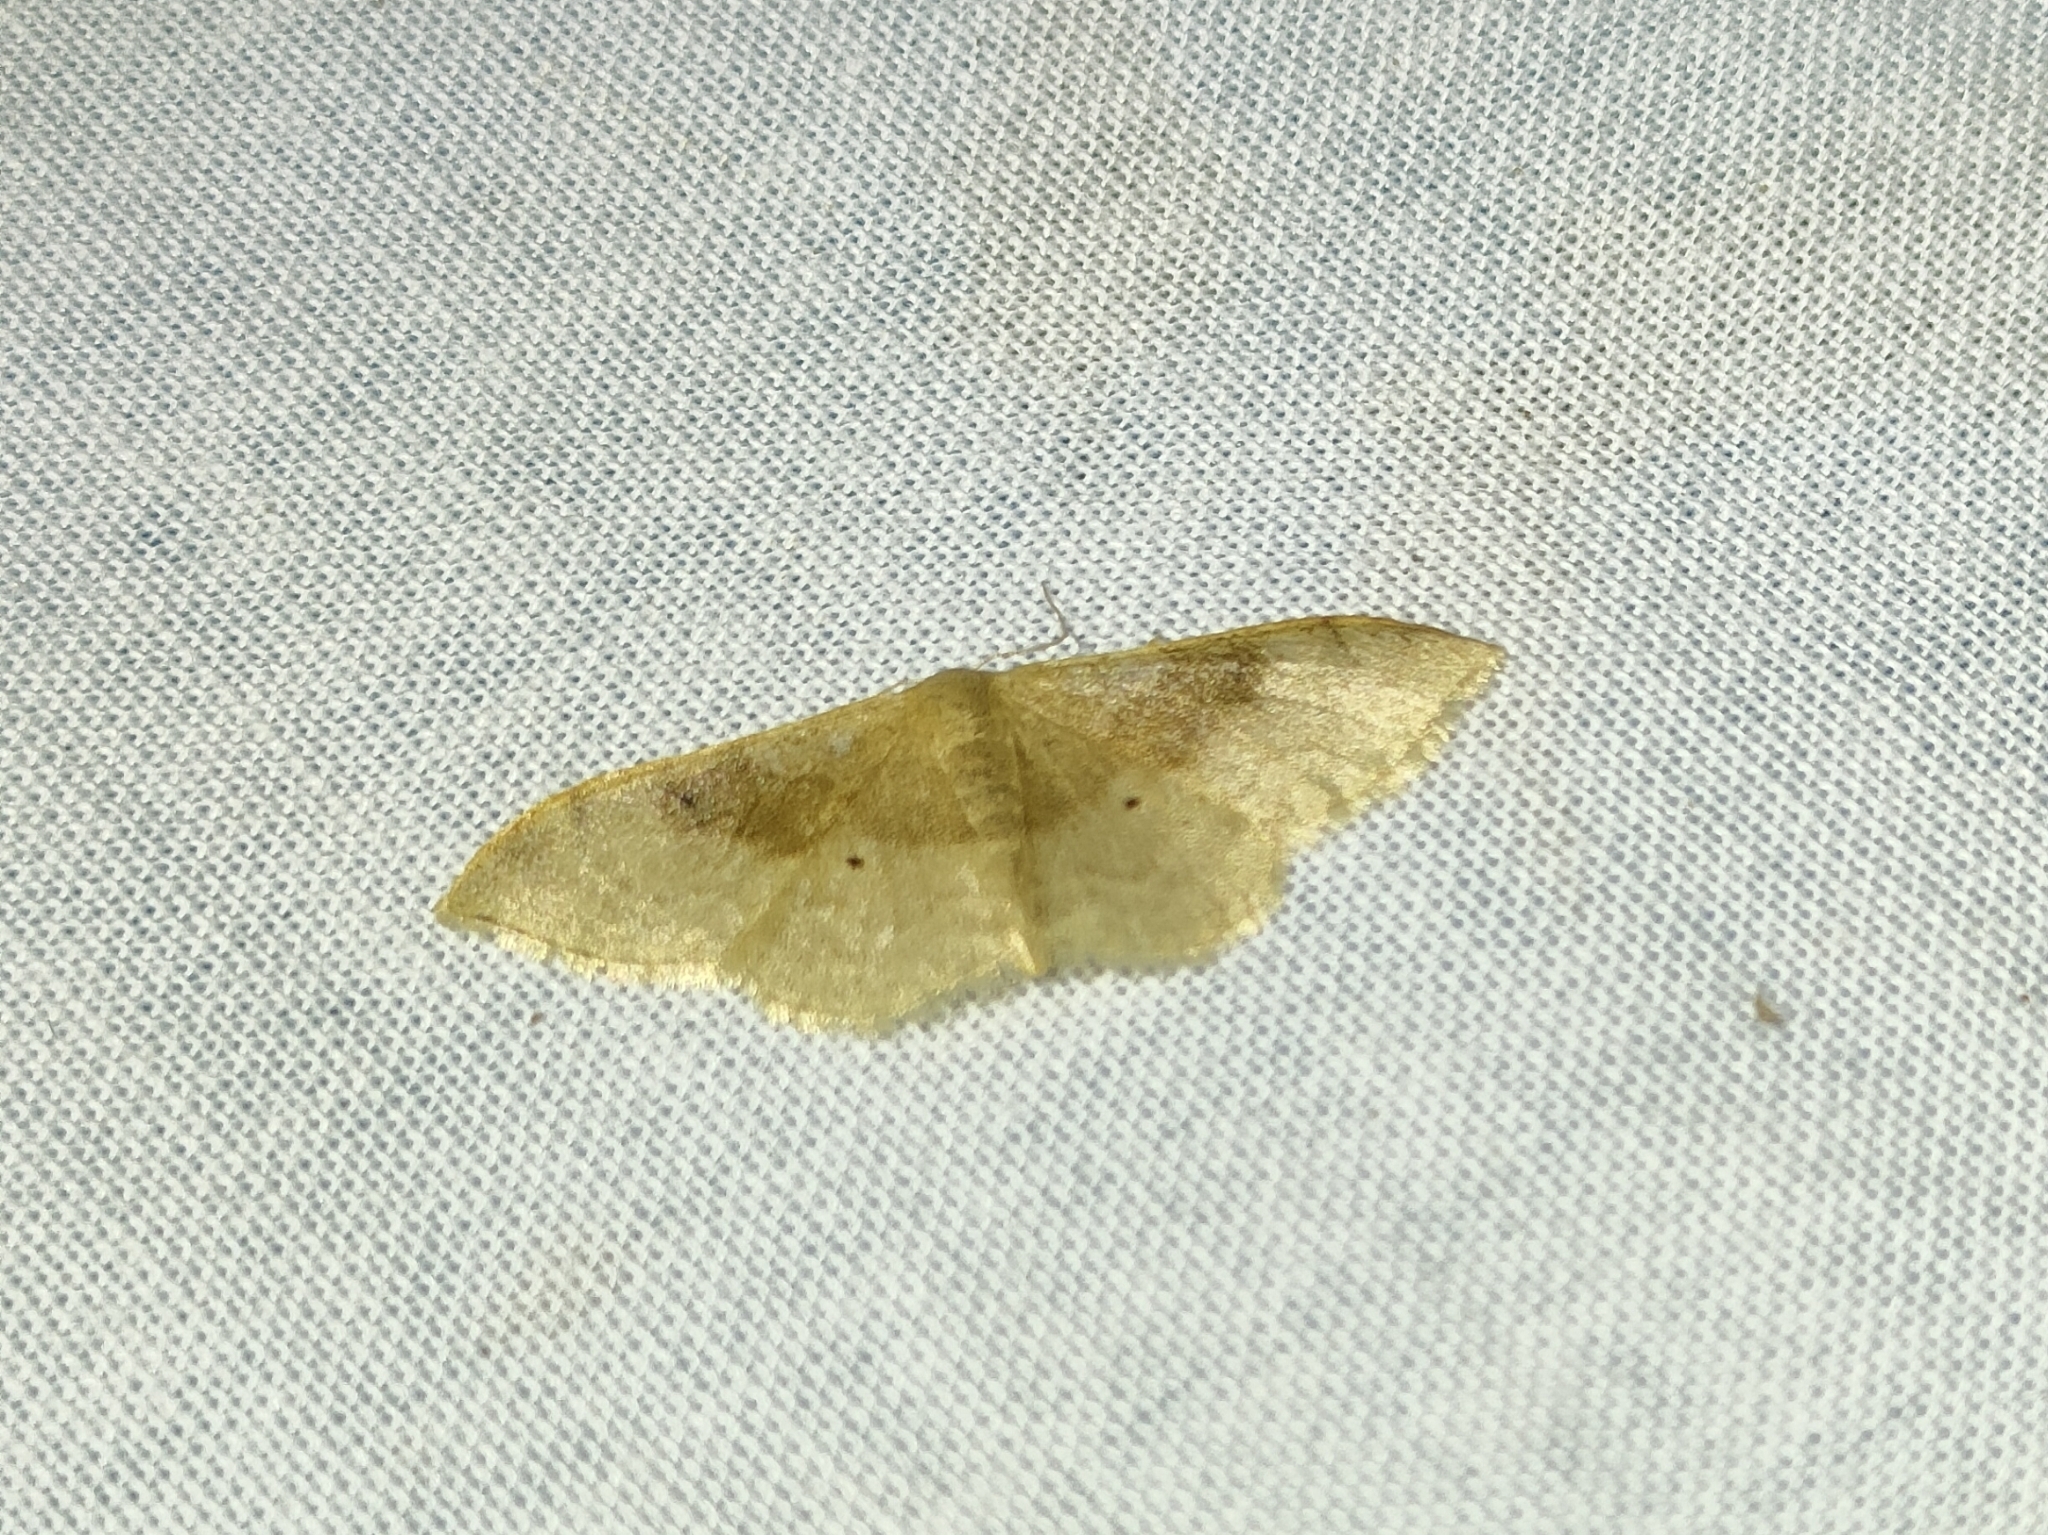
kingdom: Animalia
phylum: Arthropoda
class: Insecta
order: Lepidoptera
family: Geometridae
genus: Idaea
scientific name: Idaea degeneraria
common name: Portland ribbon wave
